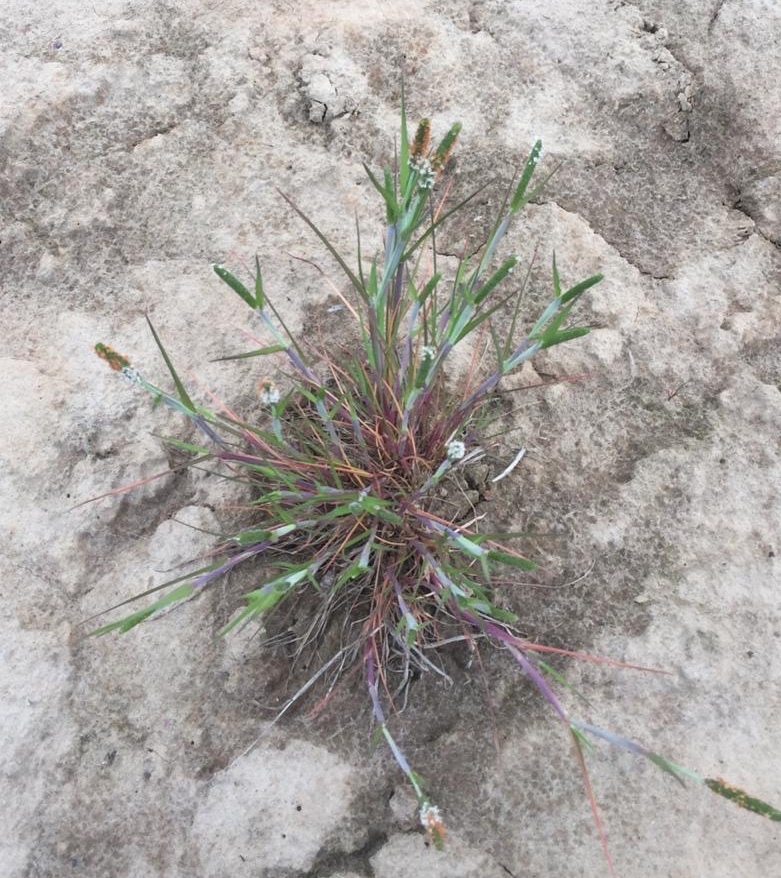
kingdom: Plantae
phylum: Tracheophyta
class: Liliopsida
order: Poales
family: Poaceae
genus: Alopecurus
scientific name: Alopecurus aequalis
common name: Orange foxtail
